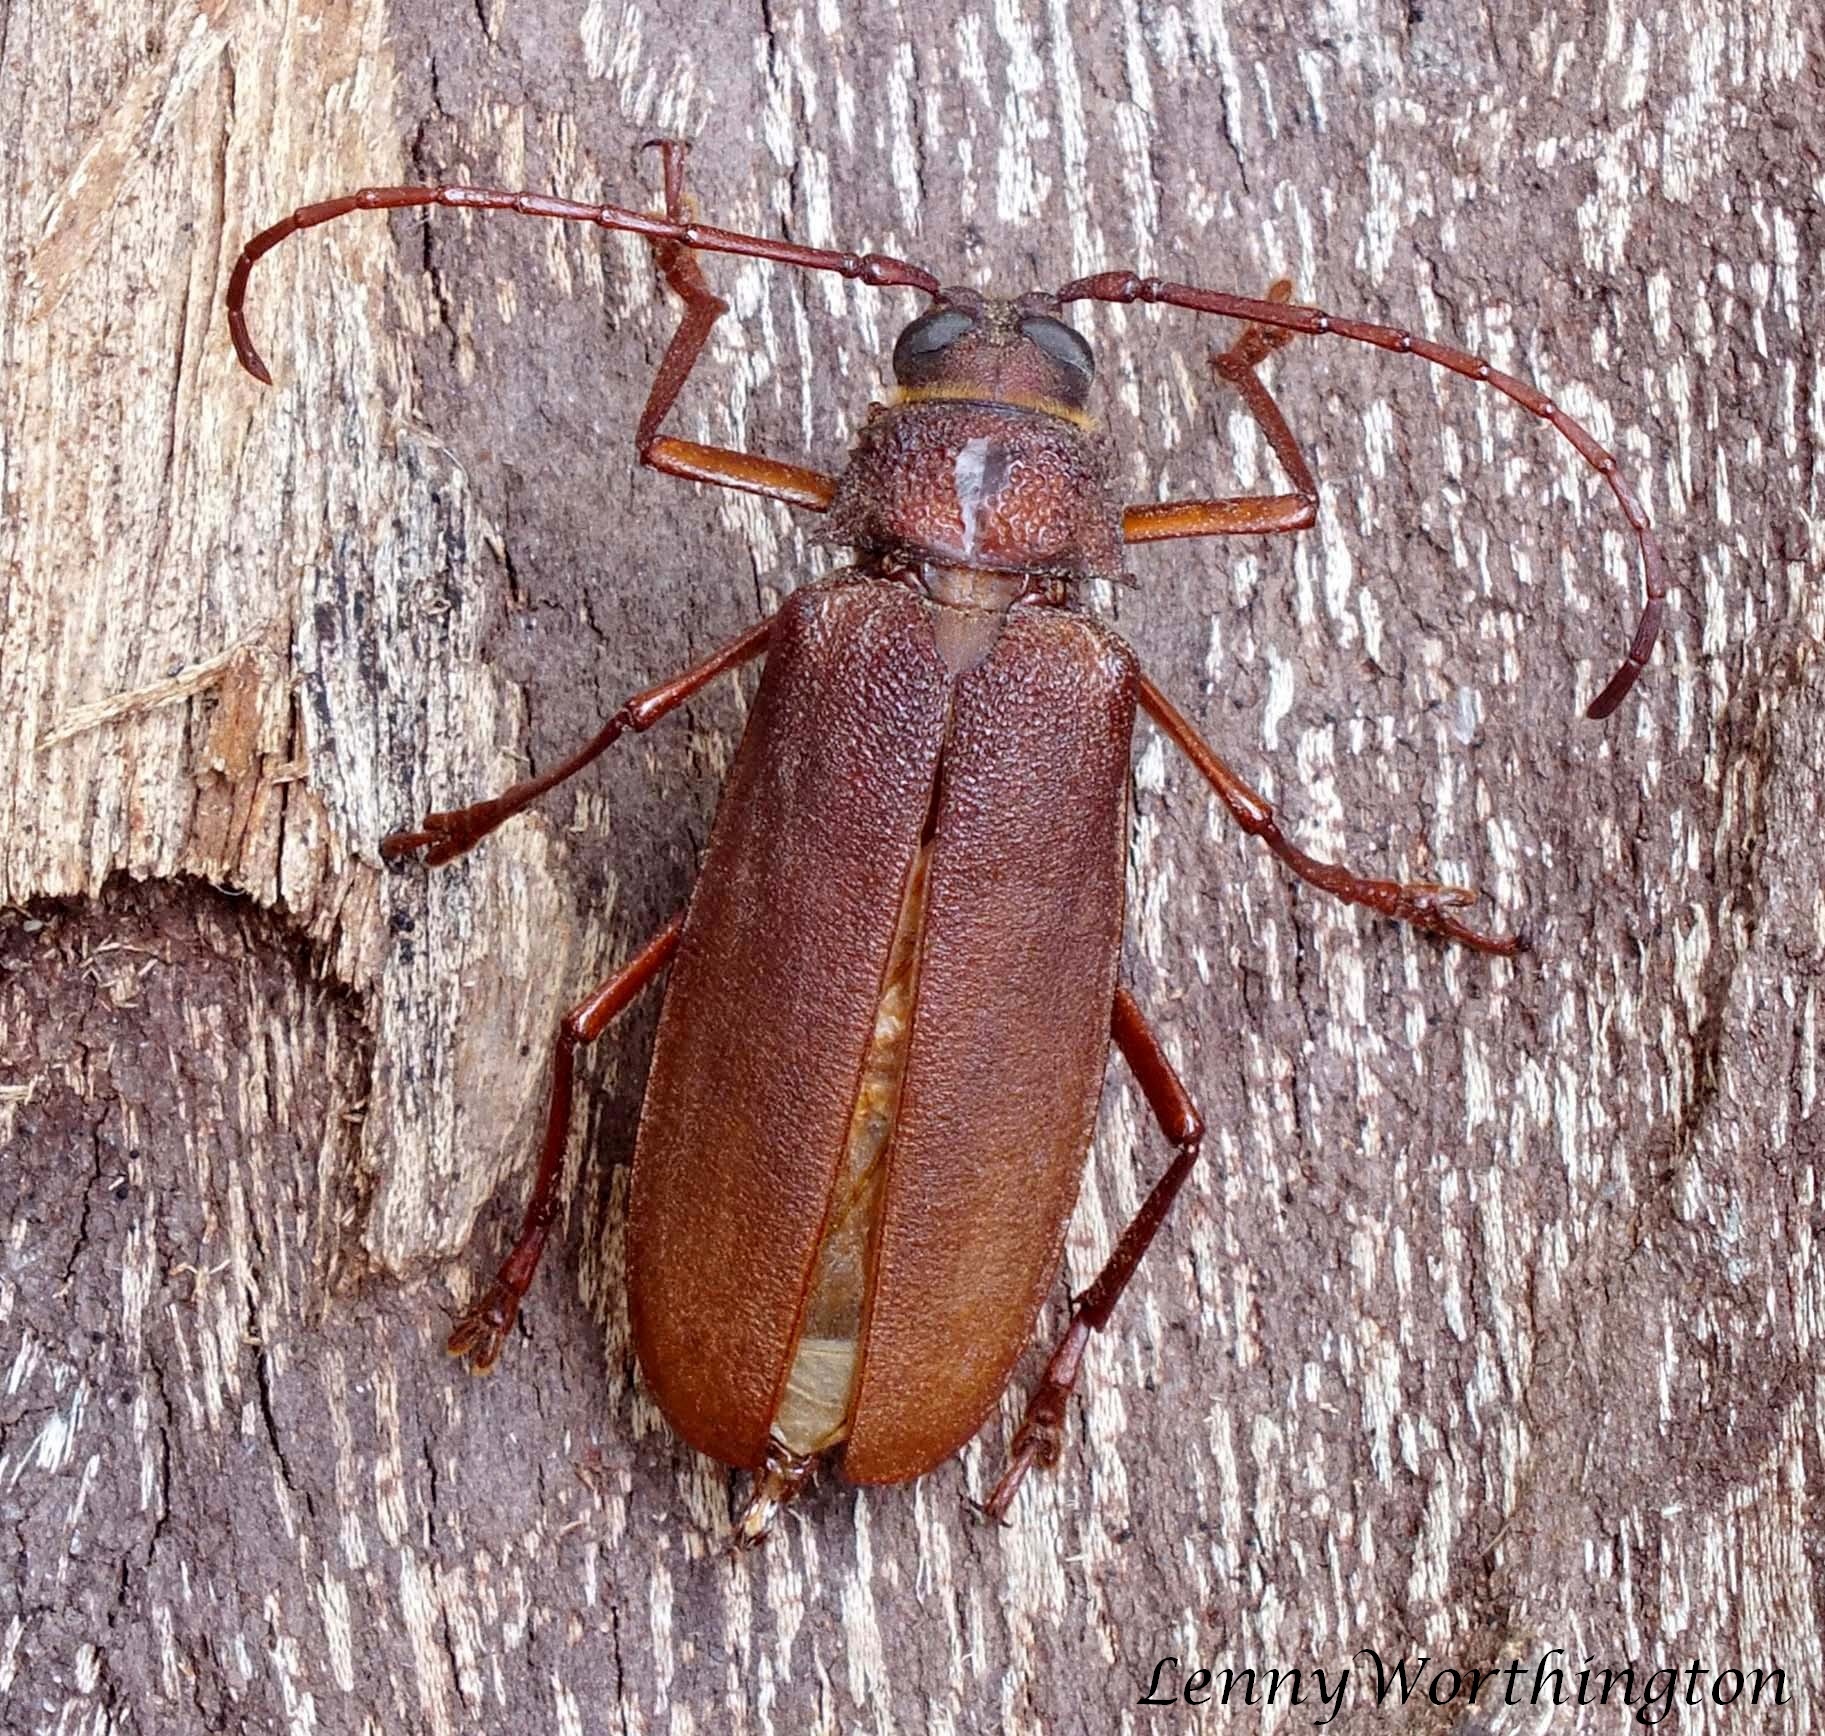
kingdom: Animalia
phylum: Arthropoda
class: Insecta
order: Coleoptera
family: Cerambycidae
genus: Bandar
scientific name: Bandar pascoei
